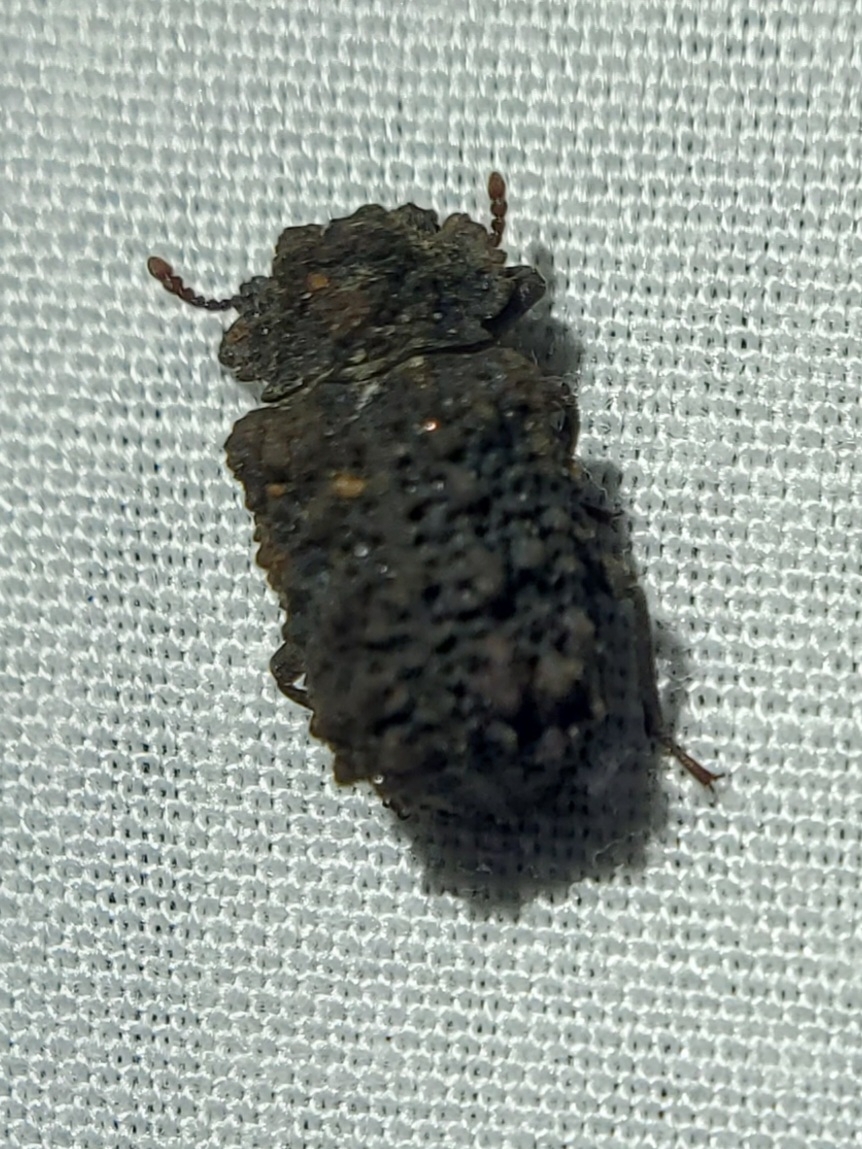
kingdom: Animalia
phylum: Arthropoda
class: Insecta
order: Coleoptera
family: Tenebrionidae
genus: Gnatocerus
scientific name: Gnatocerus cornutus
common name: Broad-horned flour beetle
